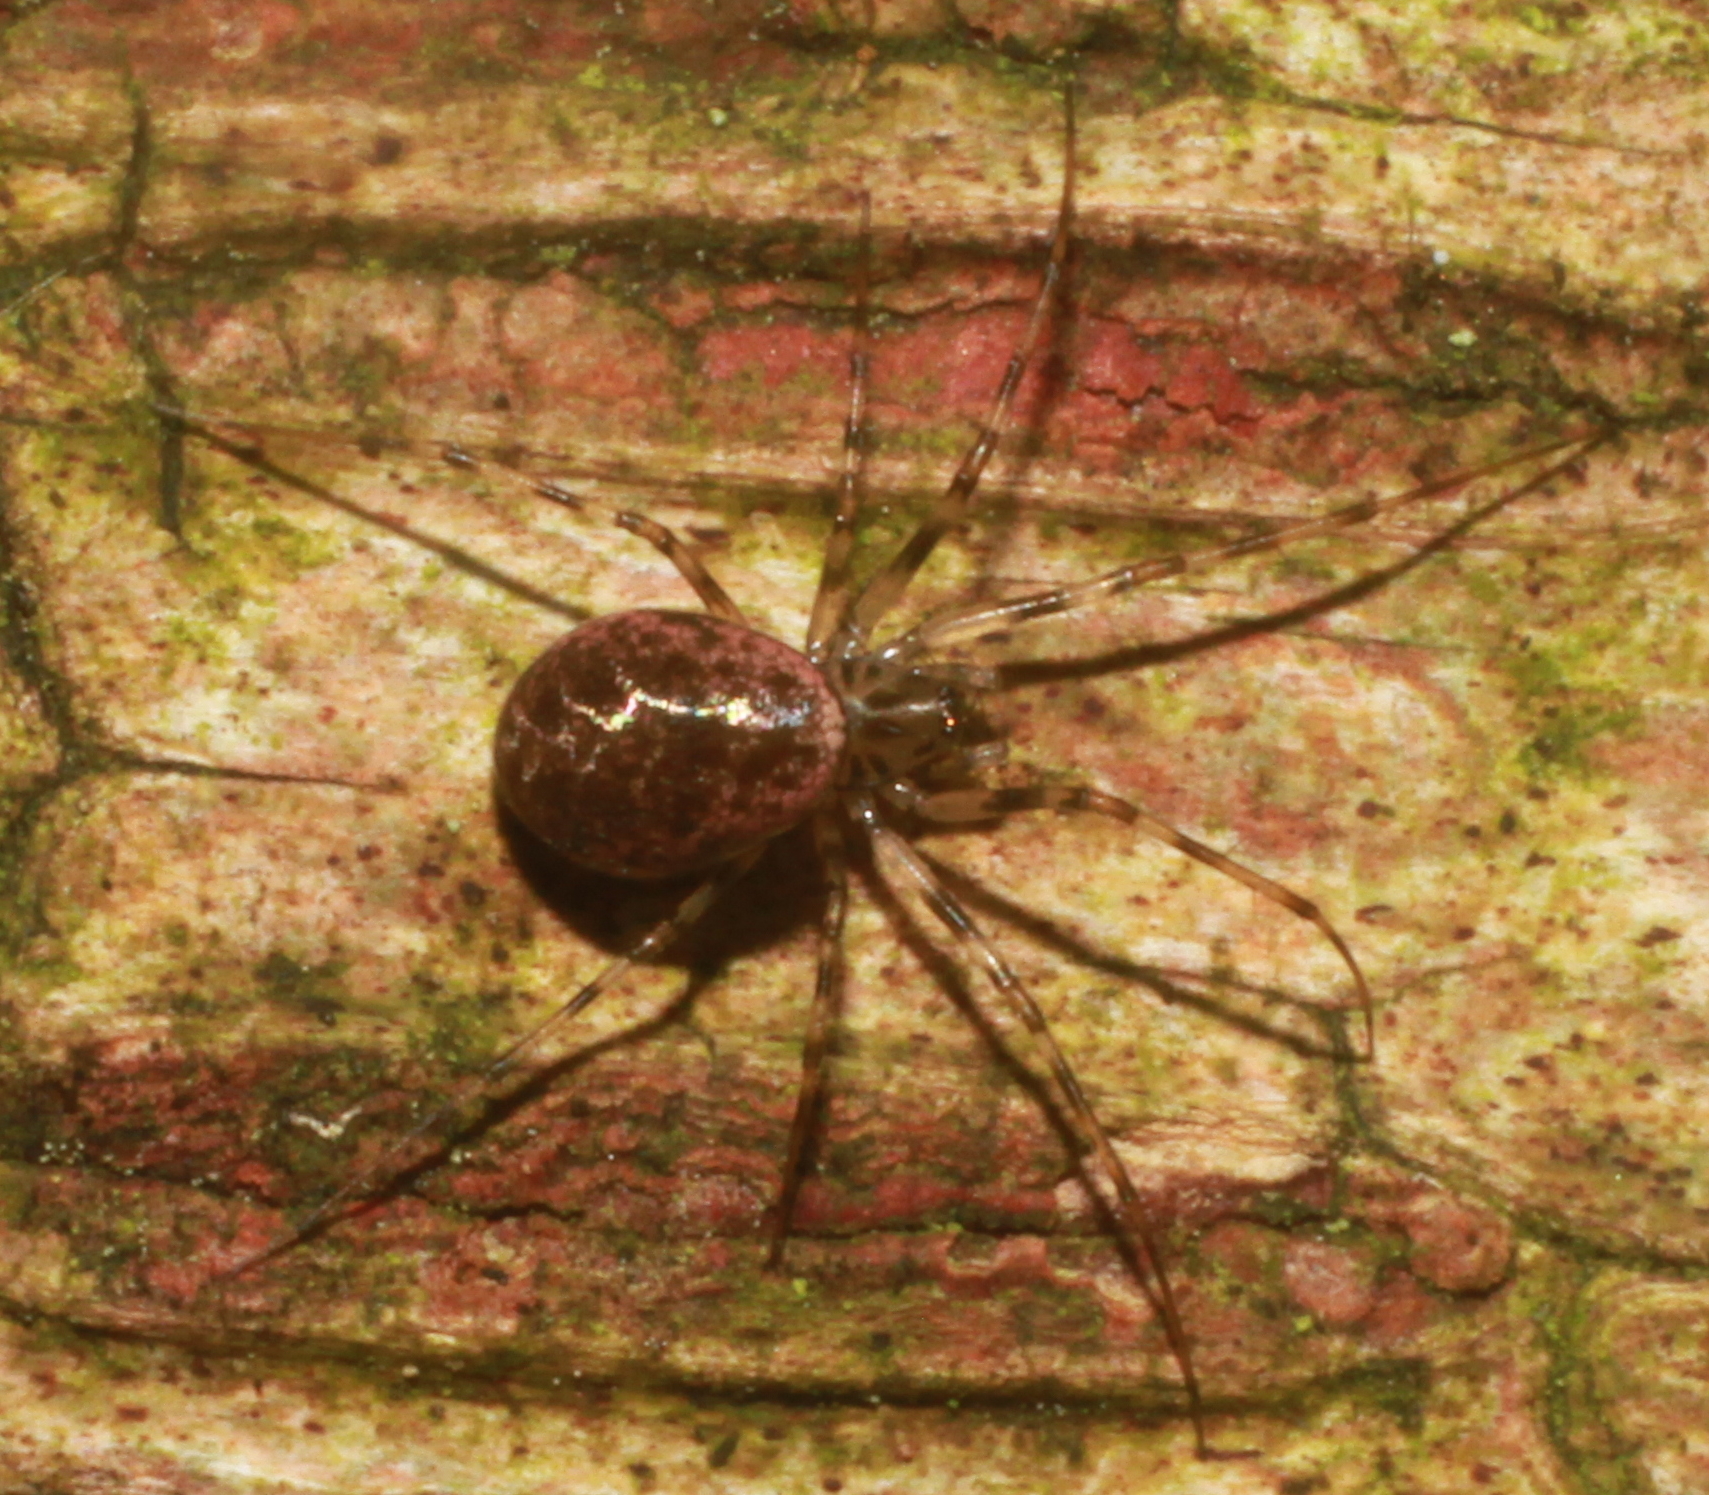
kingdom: Animalia
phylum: Arthropoda
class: Arachnida
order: Araneae
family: Linyphiidae
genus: Drapetisca
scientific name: Drapetisca socialis
